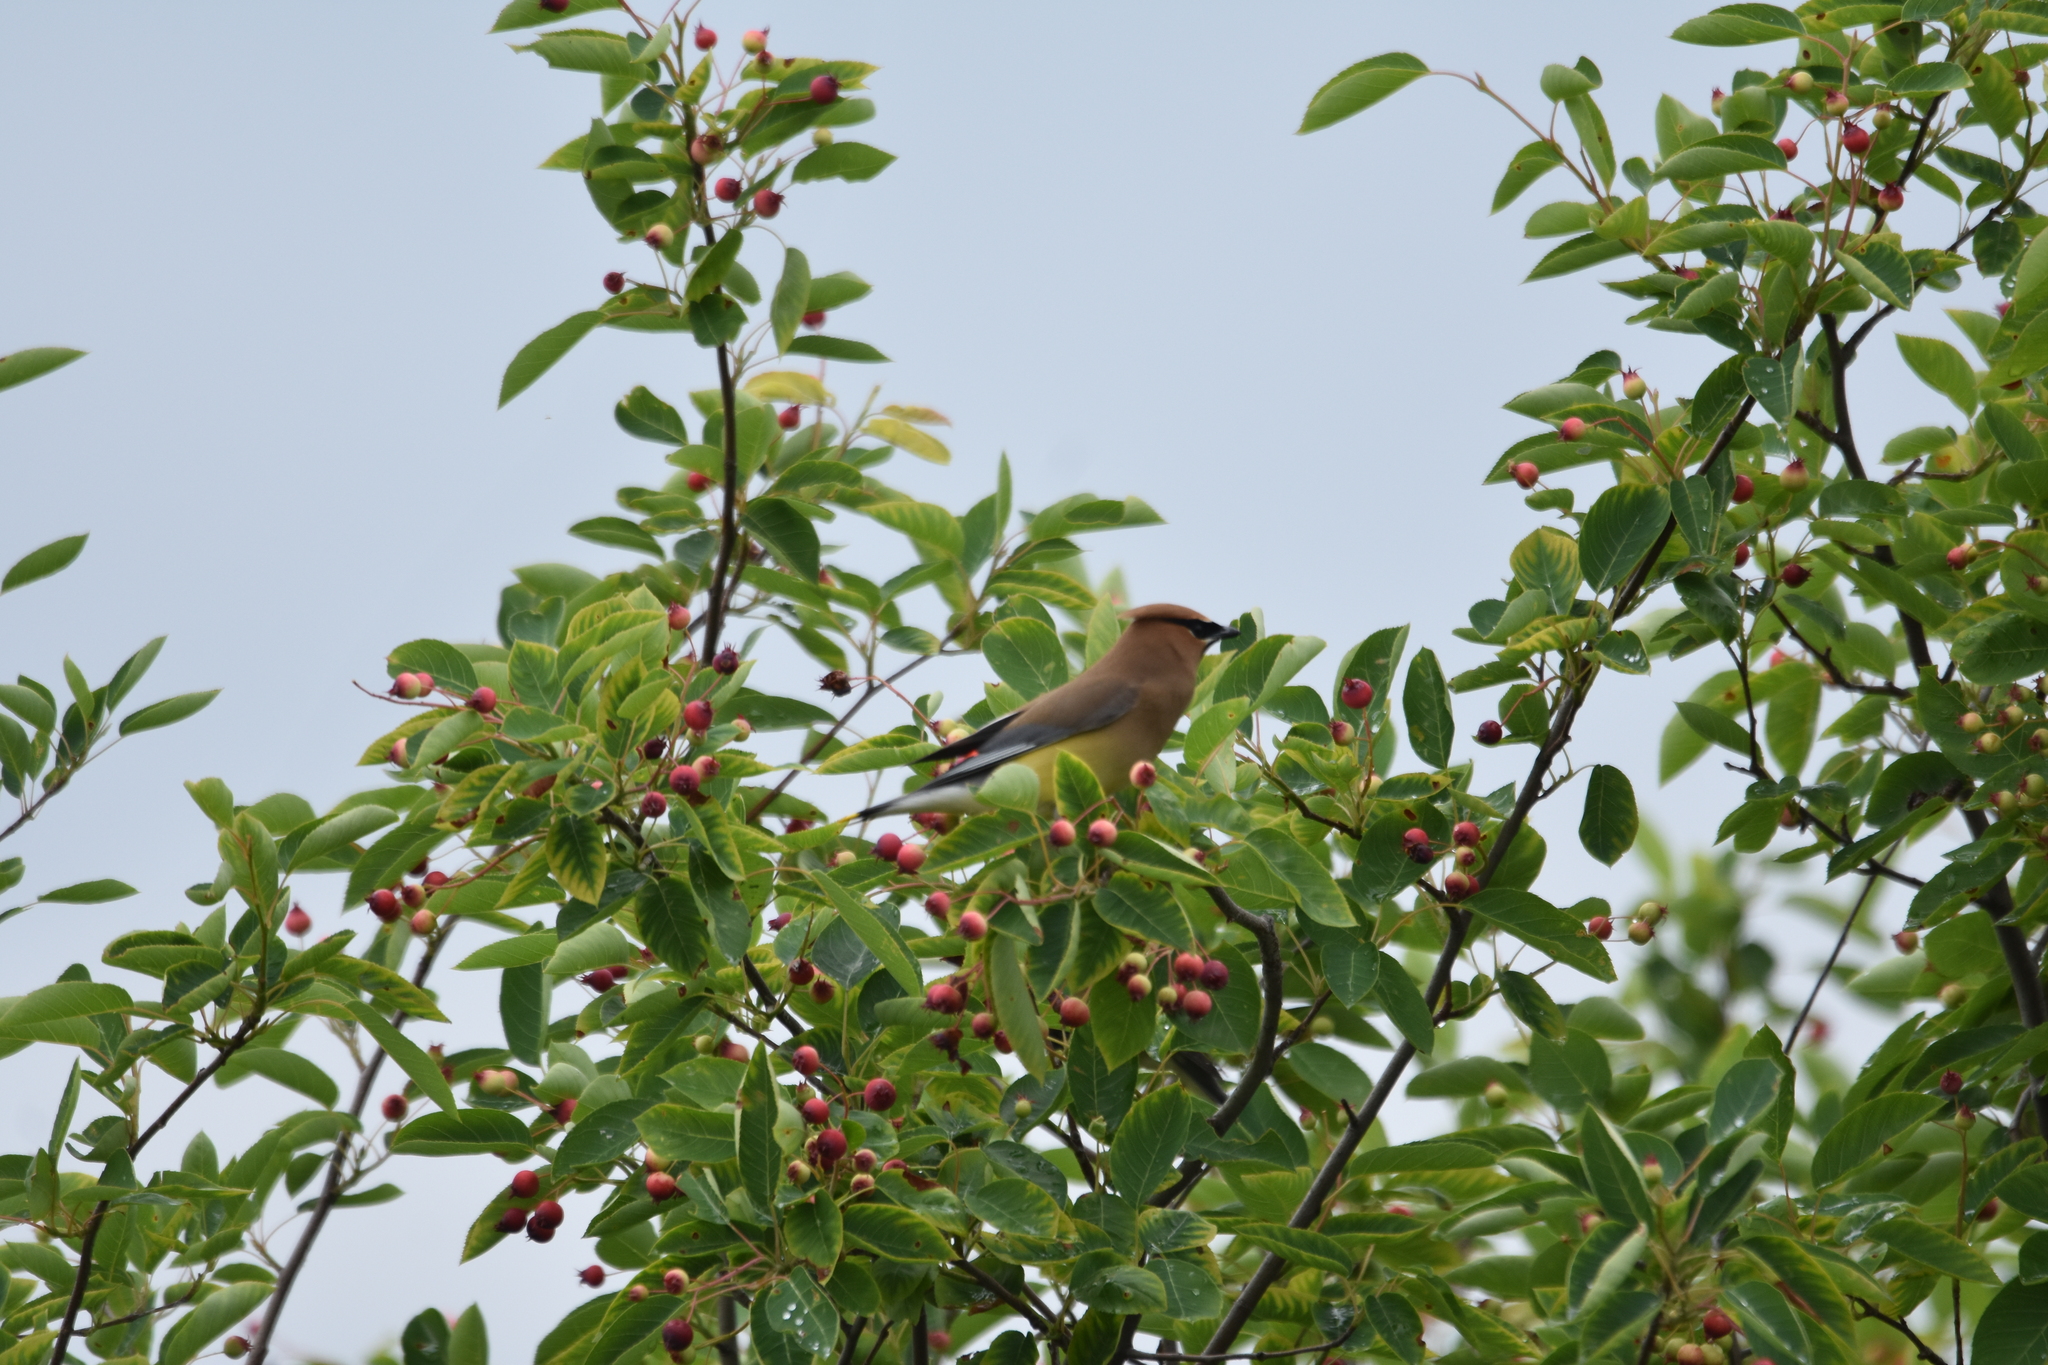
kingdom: Animalia
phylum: Chordata
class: Aves
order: Passeriformes
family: Bombycillidae
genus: Bombycilla
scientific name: Bombycilla cedrorum
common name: Cedar waxwing
